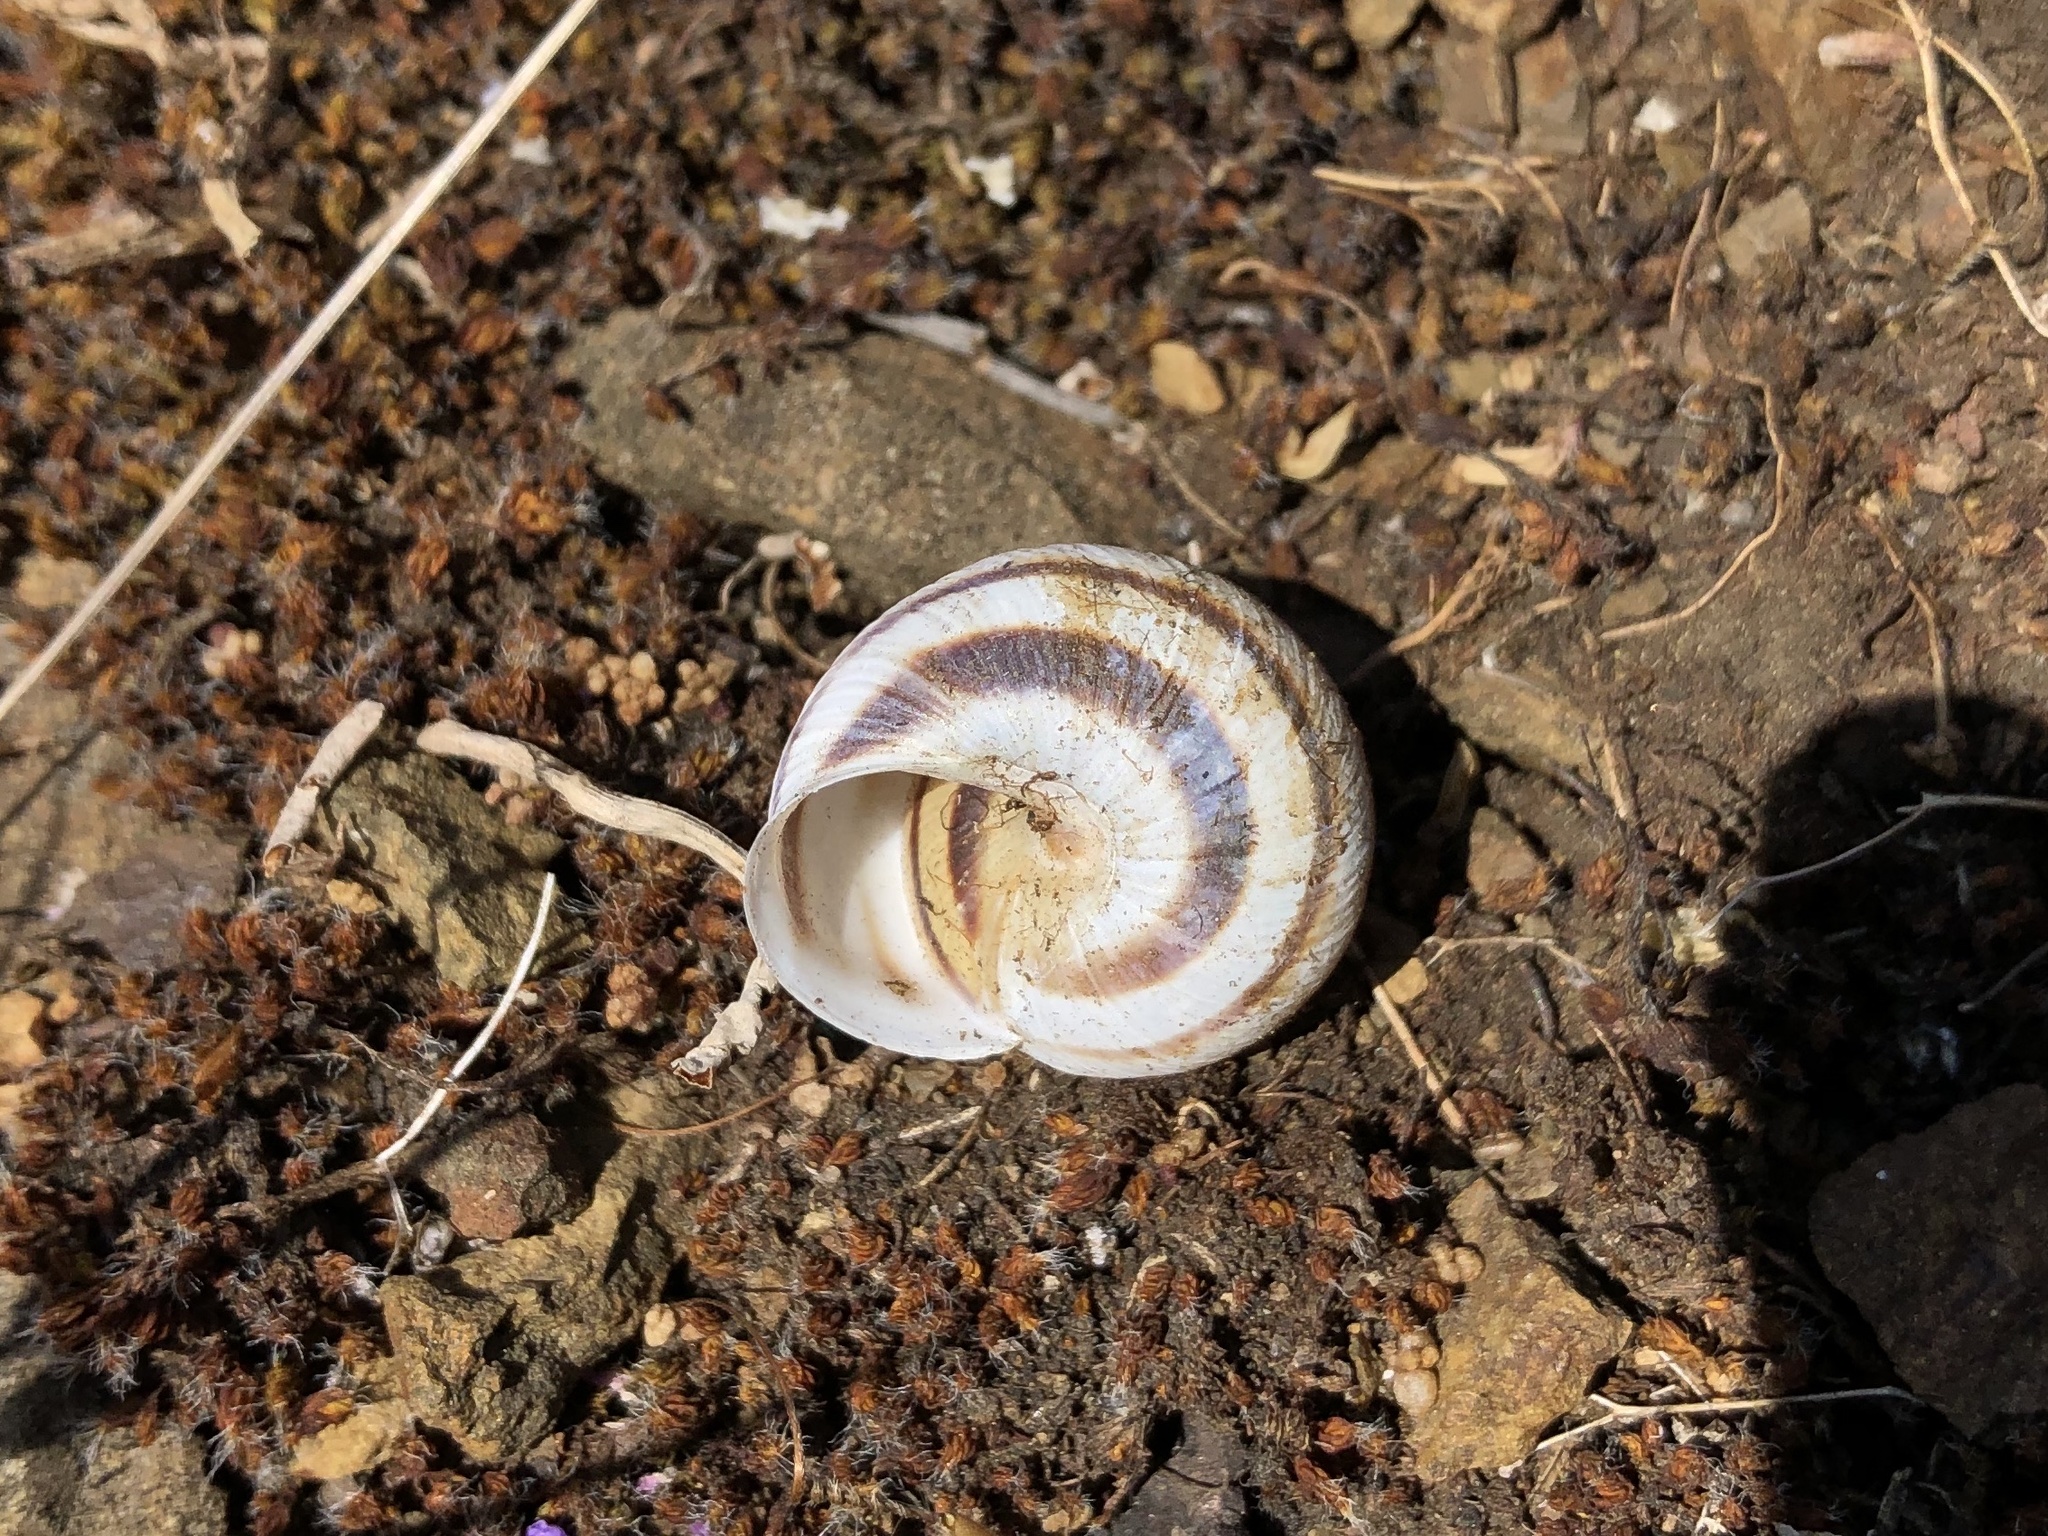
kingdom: Animalia
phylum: Mollusca
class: Gastropoda
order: Stylommatophora
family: Helicidae
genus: Caucasotachea
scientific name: Caucasotachea vindobonensis
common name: European helicid land snail
